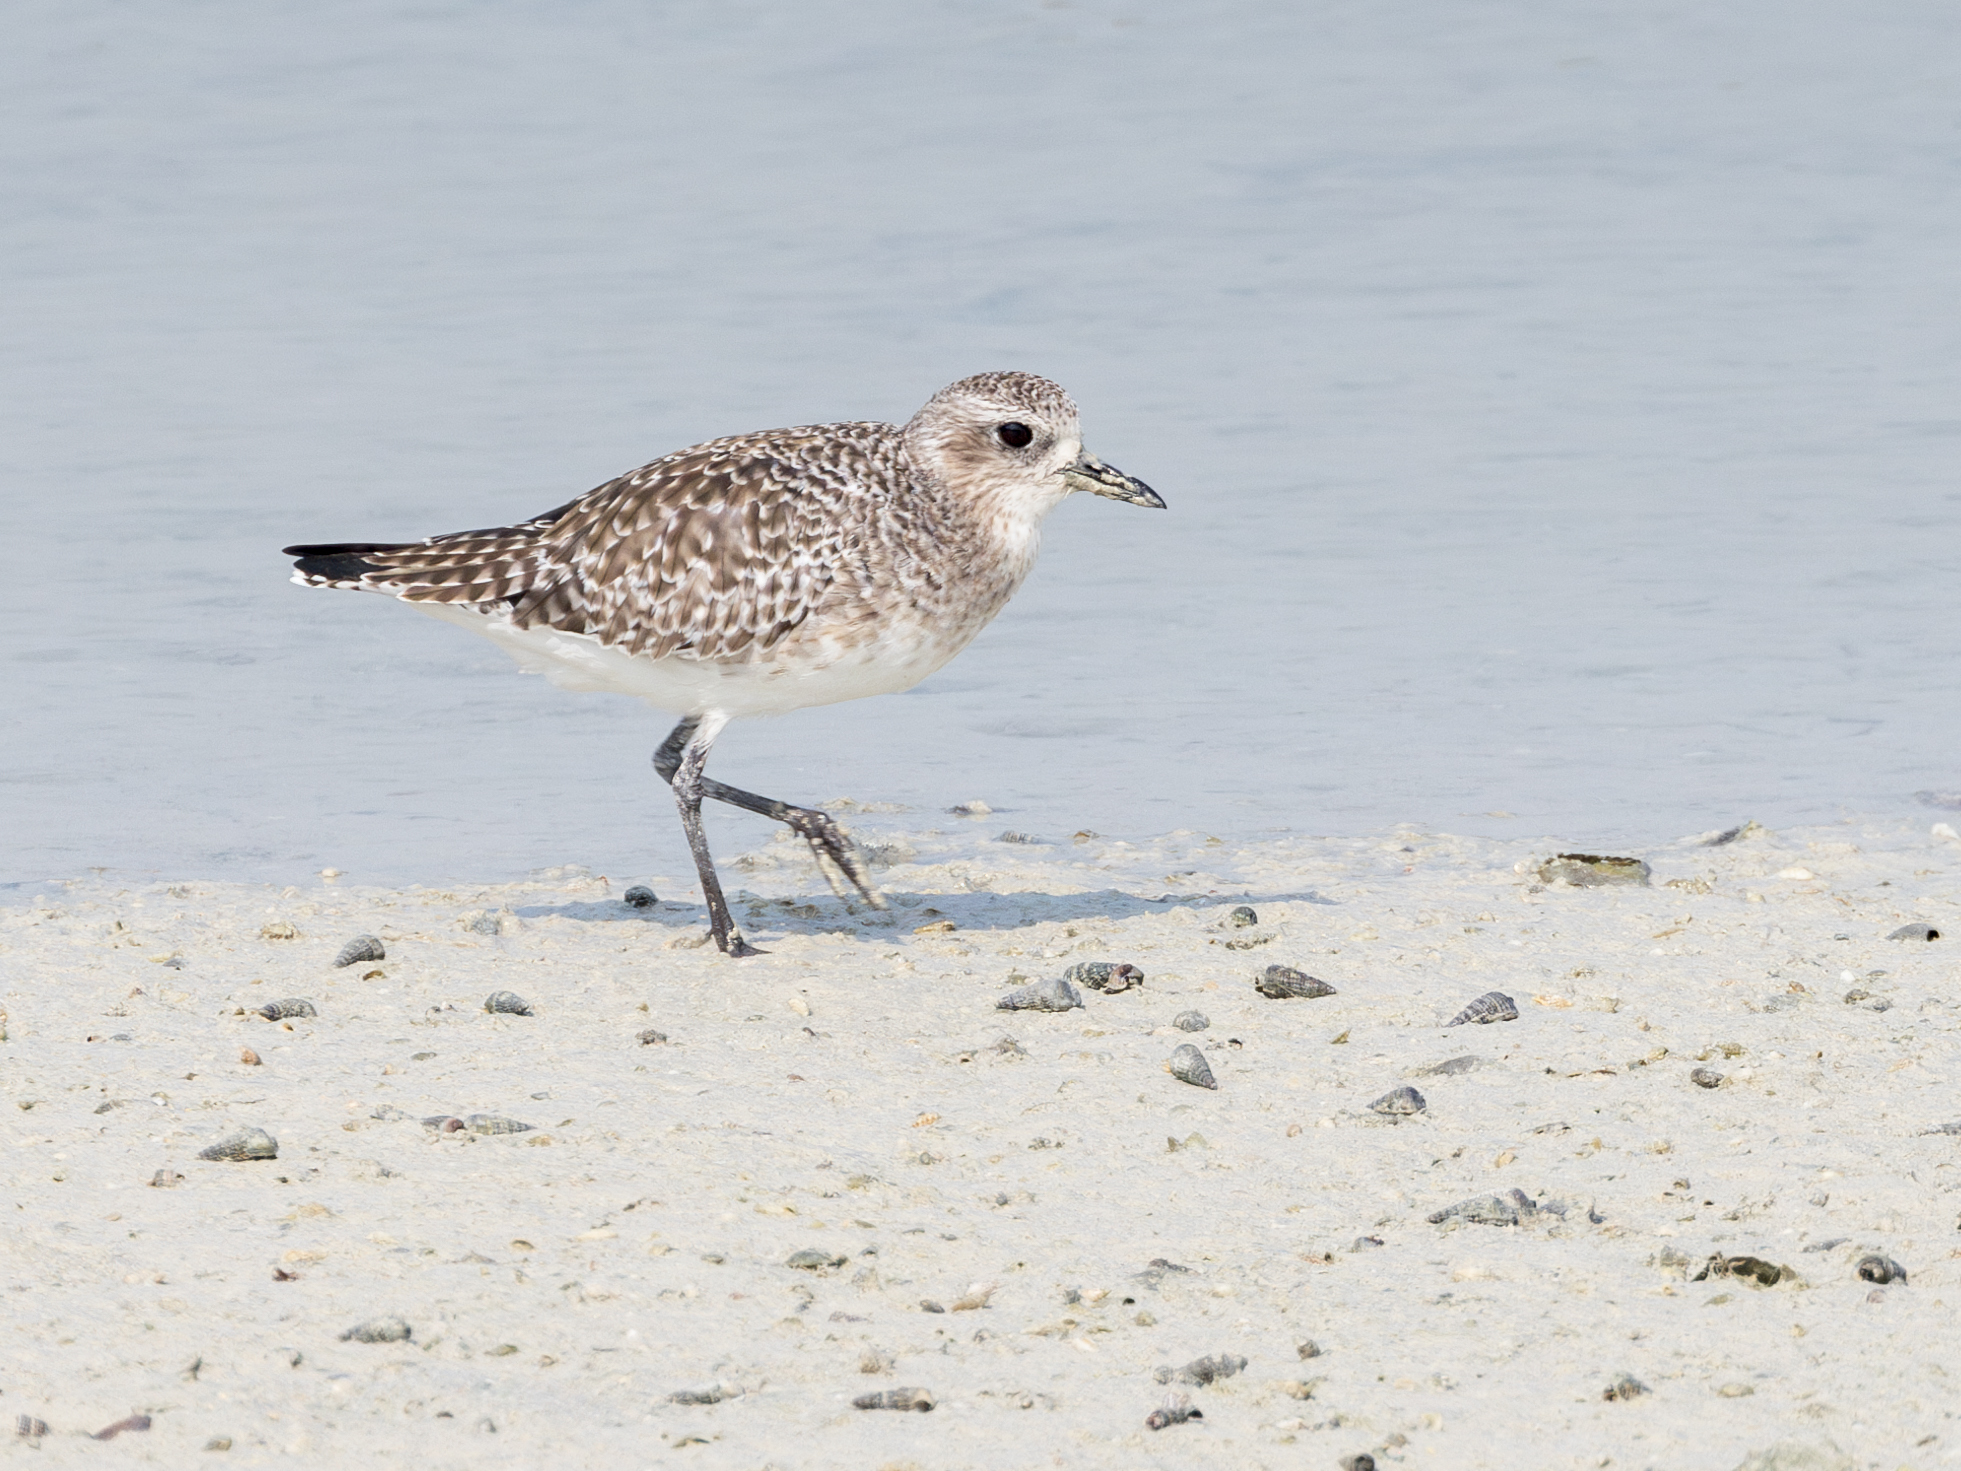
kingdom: Animalia
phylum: Chordata
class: Aves
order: Charadriiformes
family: Charadriidae
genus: Pluvialis
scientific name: Pluvialis squatarola
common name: Grey plover
